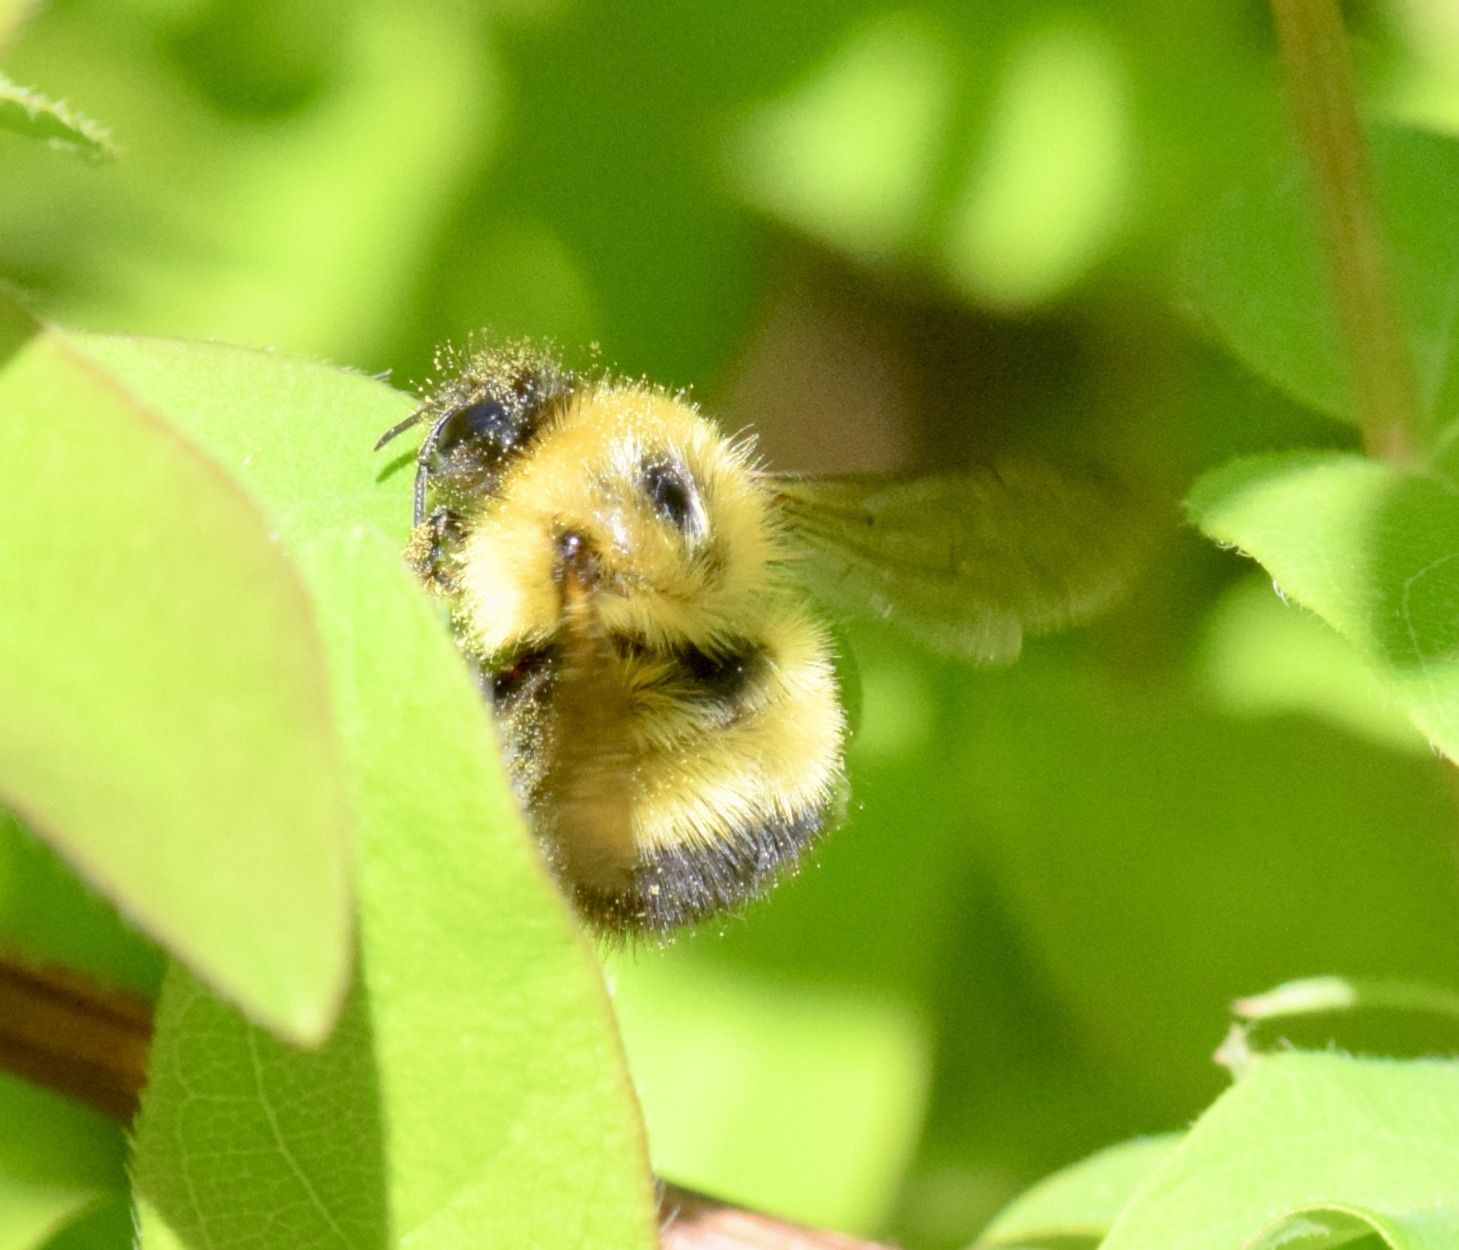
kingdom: Animalia
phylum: Arthropoda
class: Insecta
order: Hymenoptera
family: Apidae
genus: Pyrobombus
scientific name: Pyrobombus
